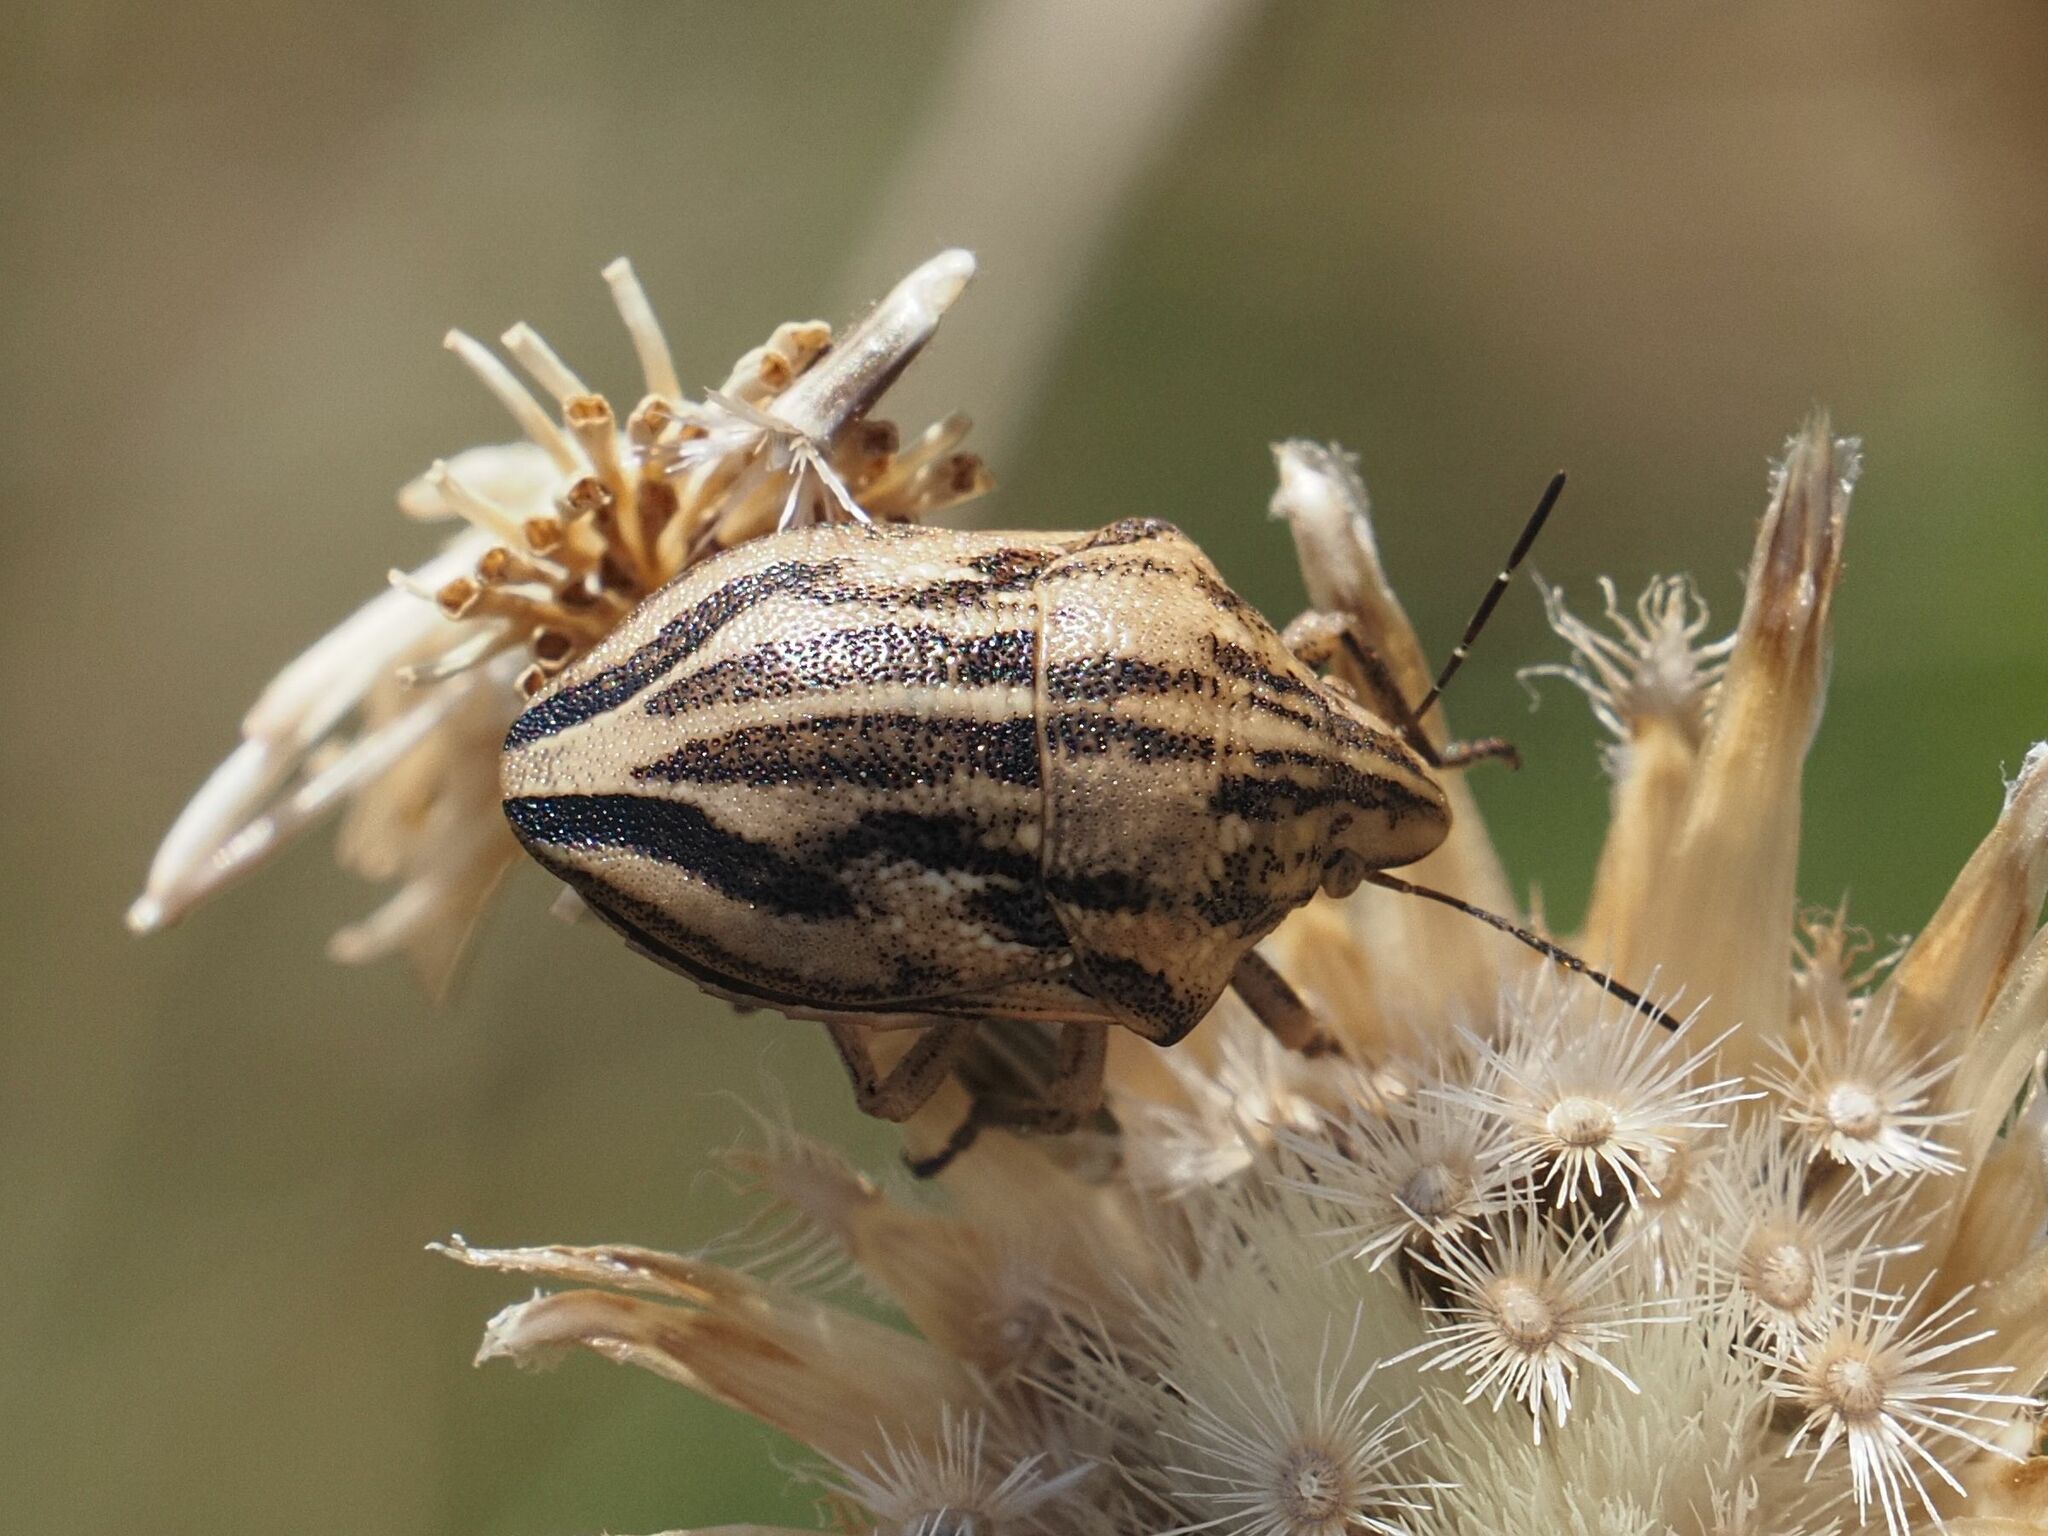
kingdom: Animalia
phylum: Arthropoda
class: Insecta
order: Hemiptera
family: Scutelleridae
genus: Odontotarsus
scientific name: Odontotarsus purpureolineatus
